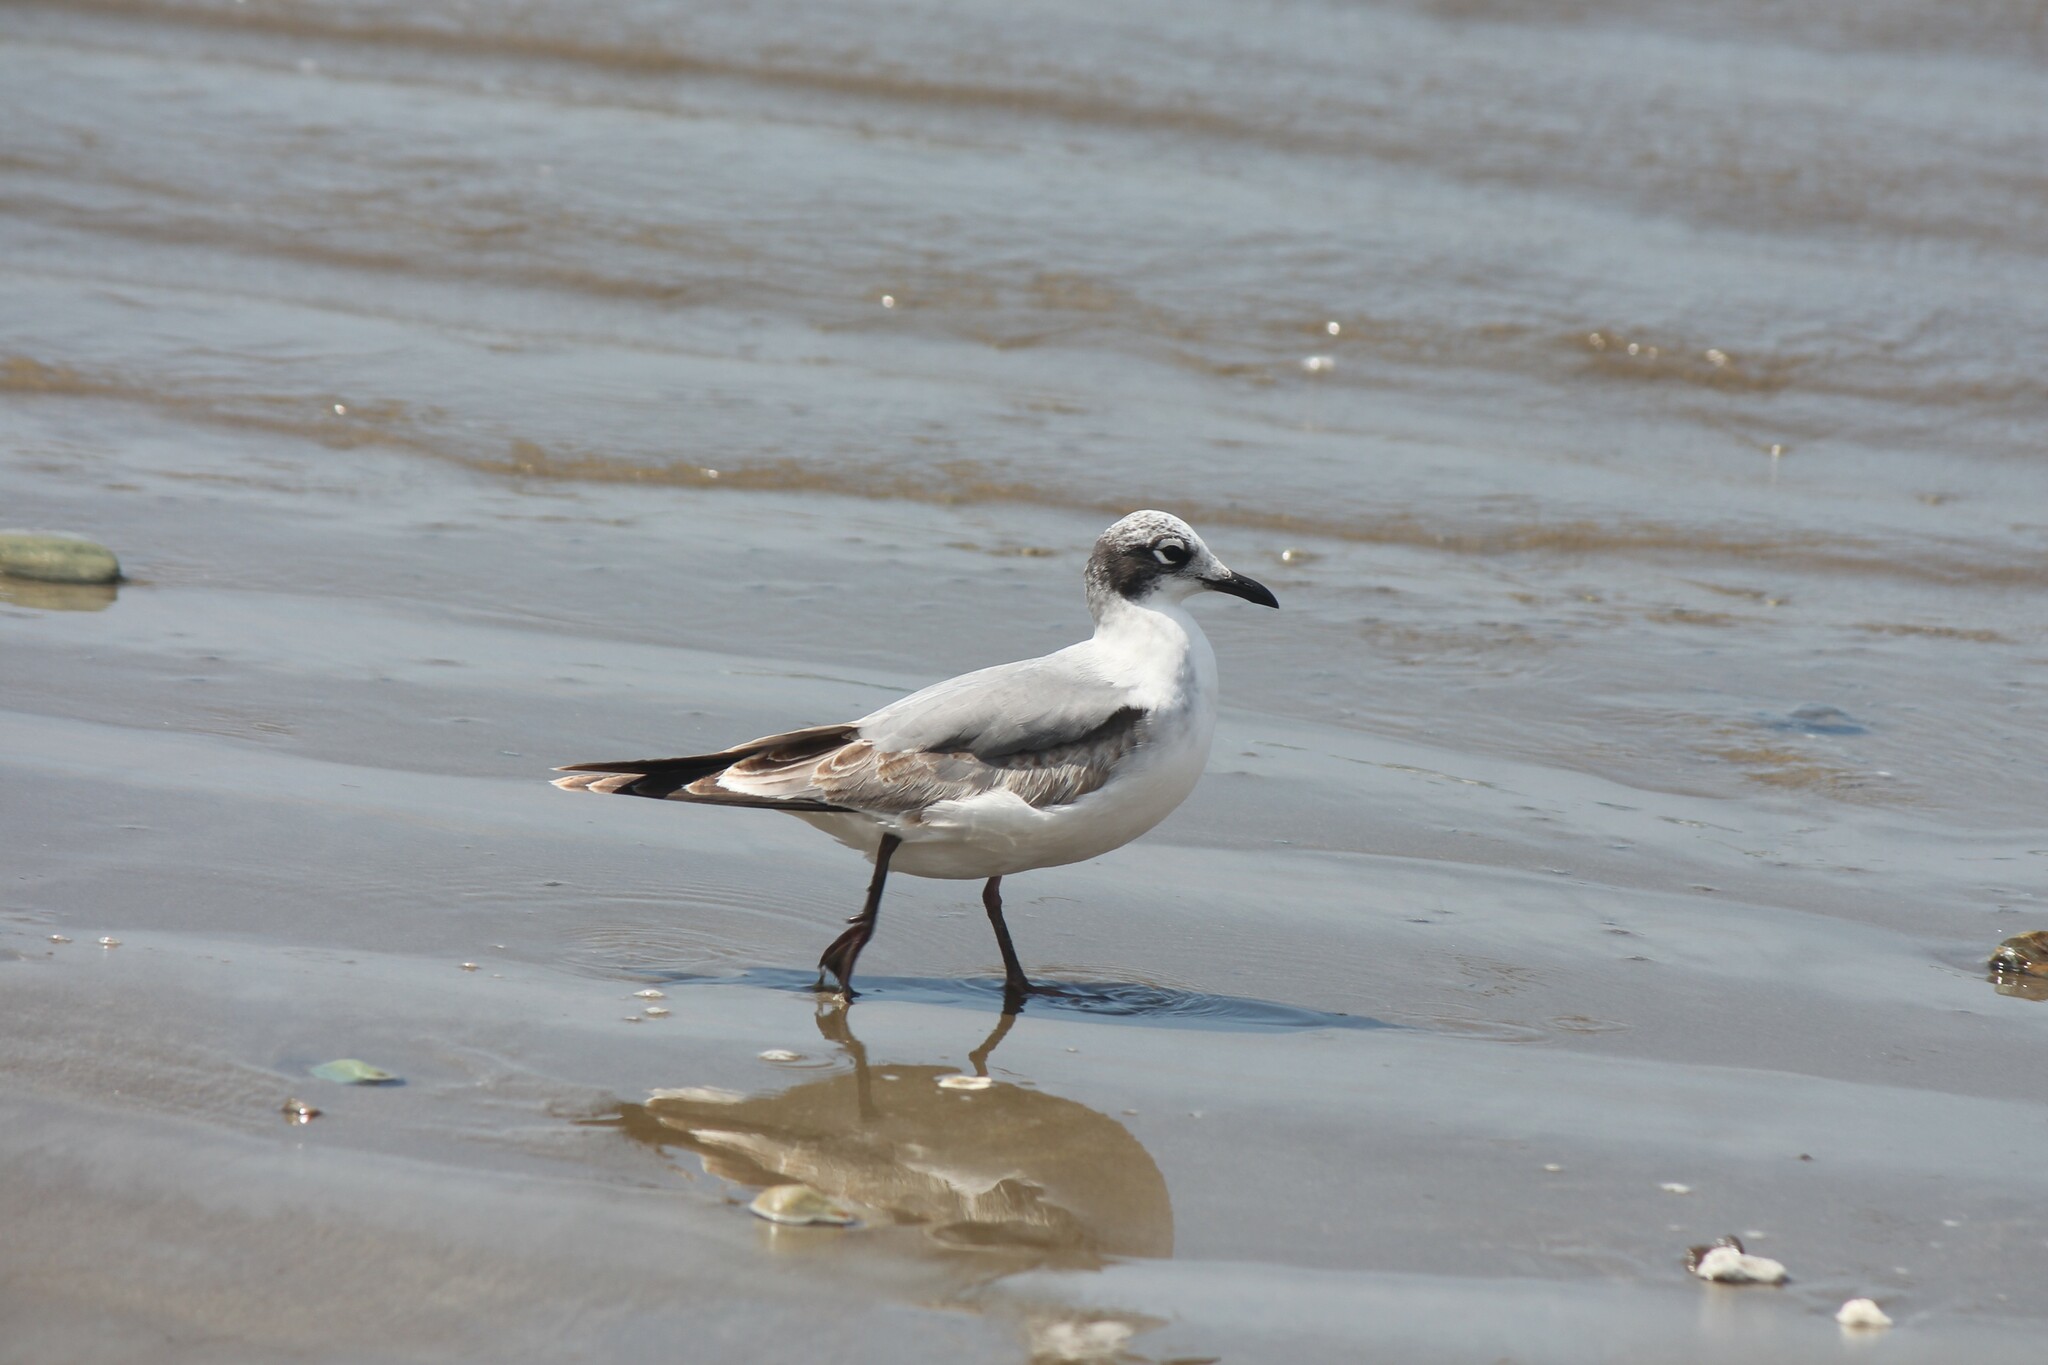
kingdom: Animalia
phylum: Chordata
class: Aves
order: Charadriiformes
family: Laridae
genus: Leucophaeus
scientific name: Leucophaeus pipixcan
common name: Franklin's gull
